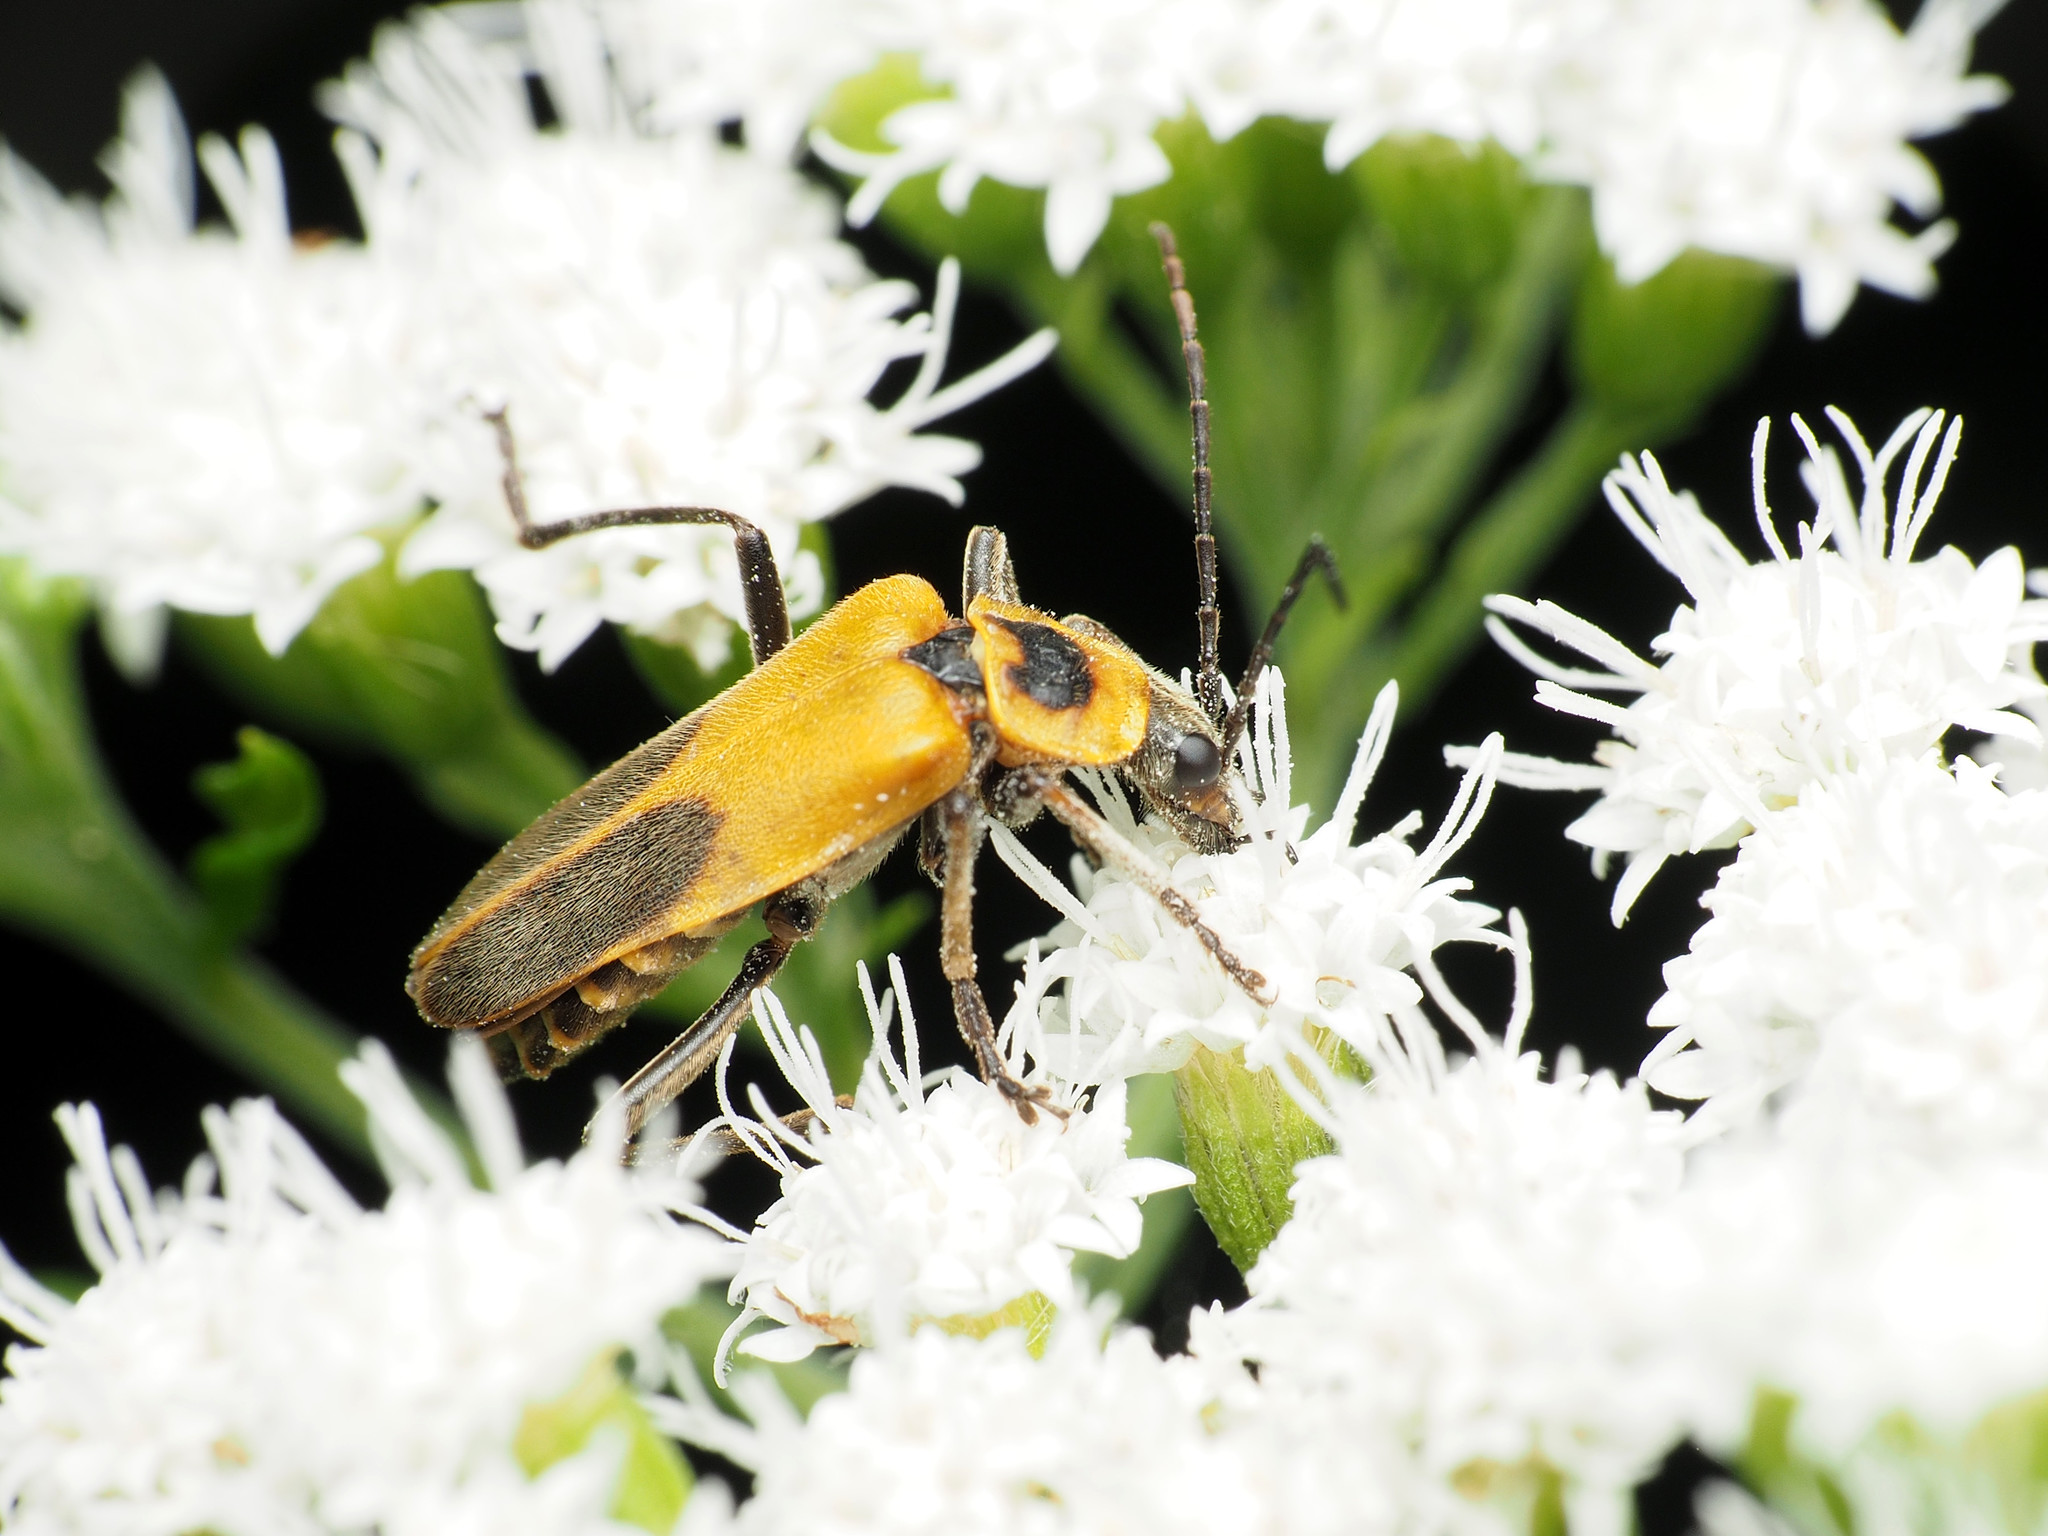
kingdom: Animalia
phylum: Arthropoda
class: Insecta
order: Coleoptera
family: Cantharidae
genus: Chauliognathus
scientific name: Chauliognathus pensylvanicus
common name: Goldenrod soldier beetle
